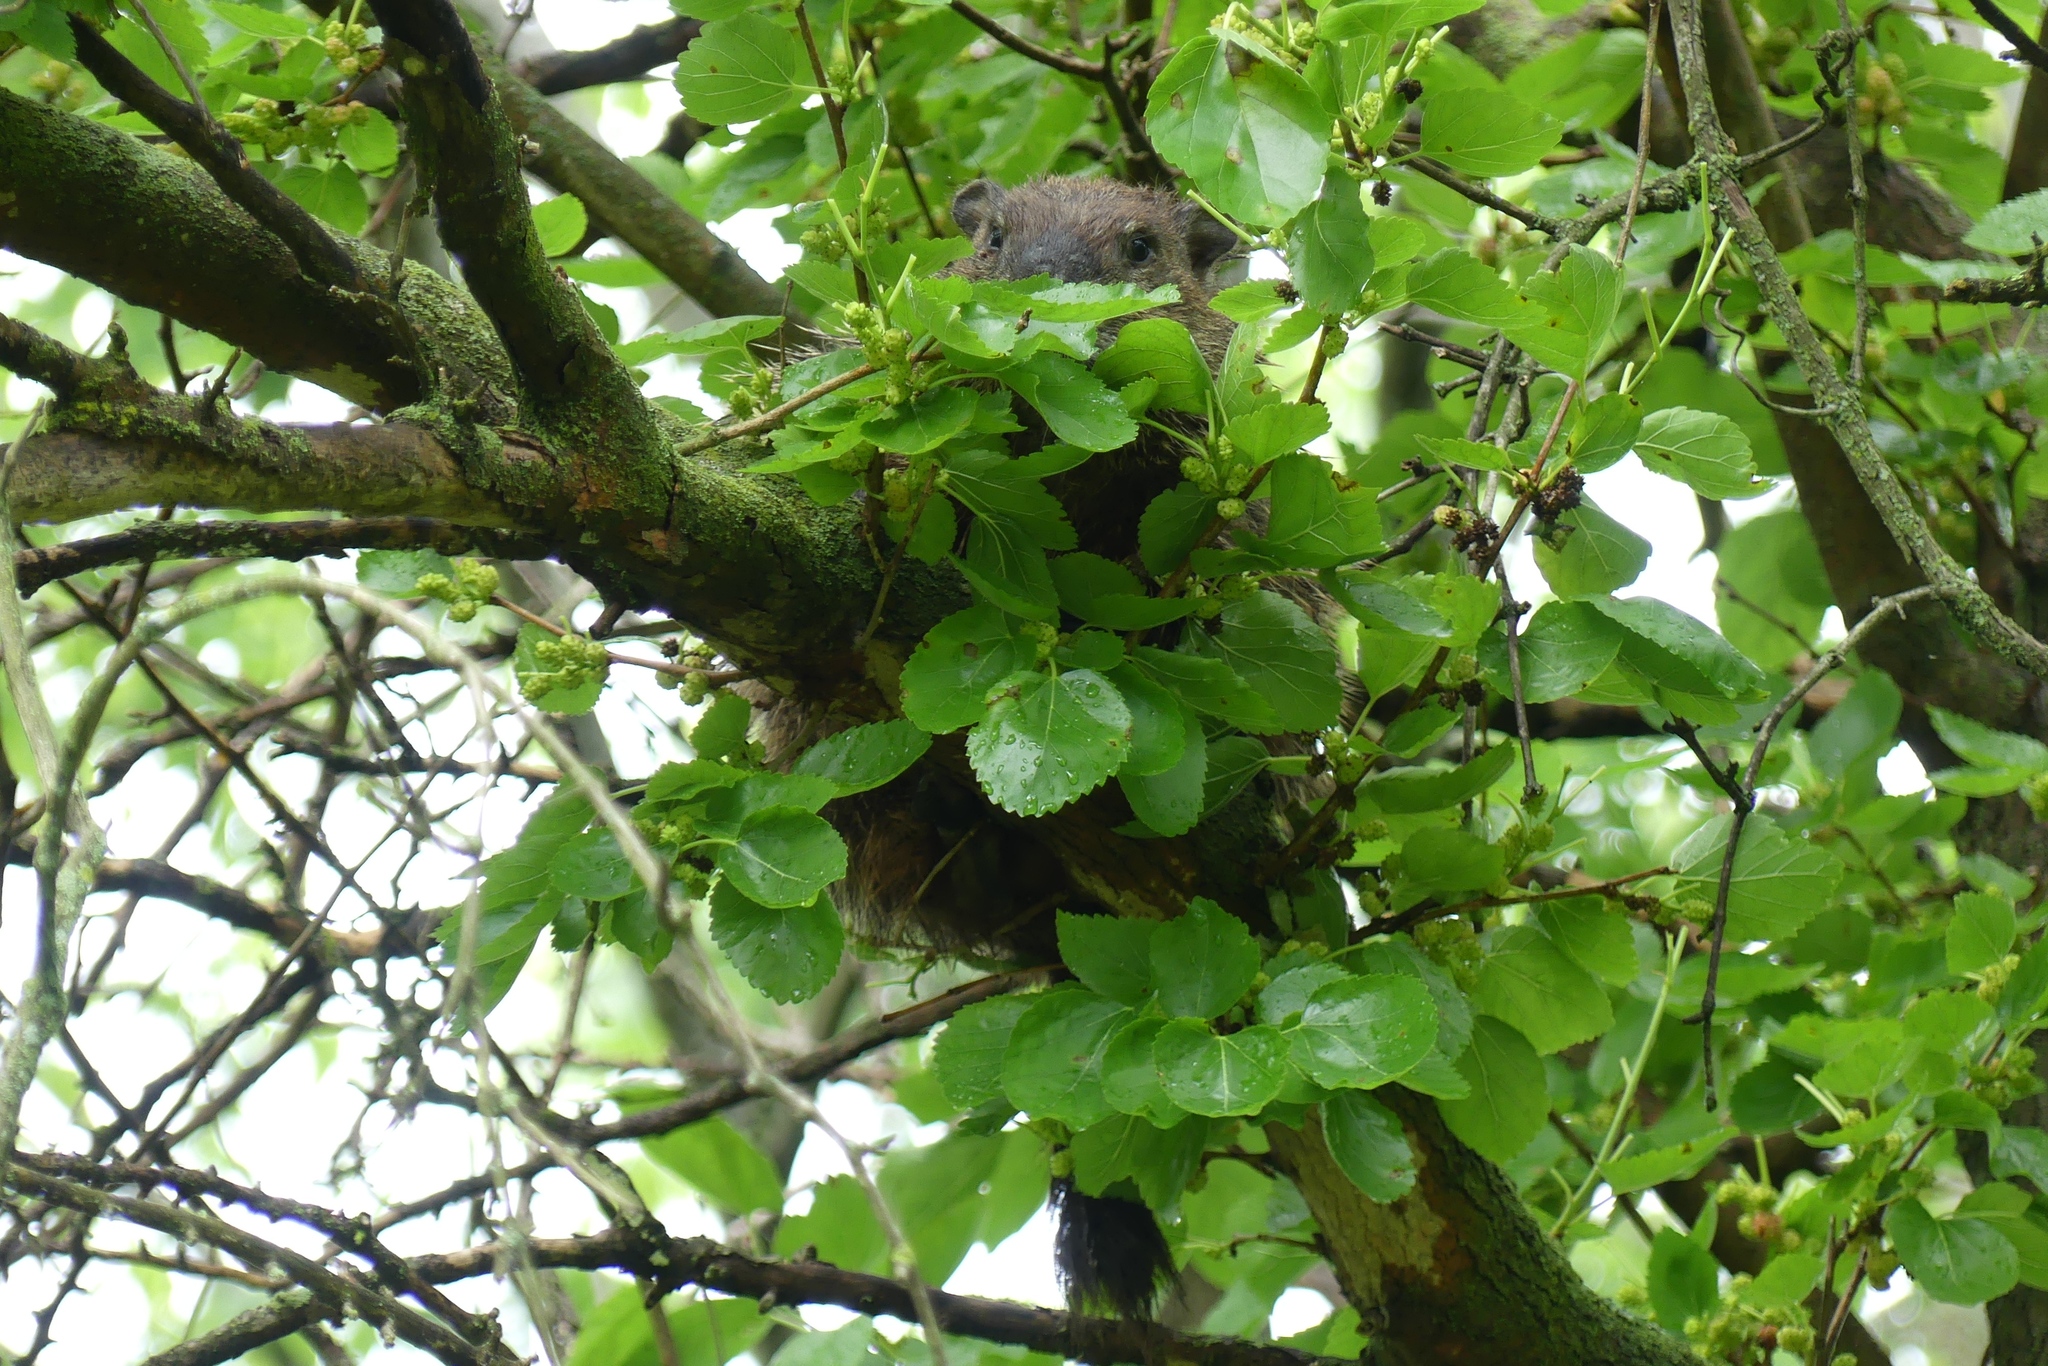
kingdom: Animalia
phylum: Chordata
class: Mammalia
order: Rodentia
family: Sciuridae
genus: Marmota
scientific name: Marmota monax
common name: Groundhog
